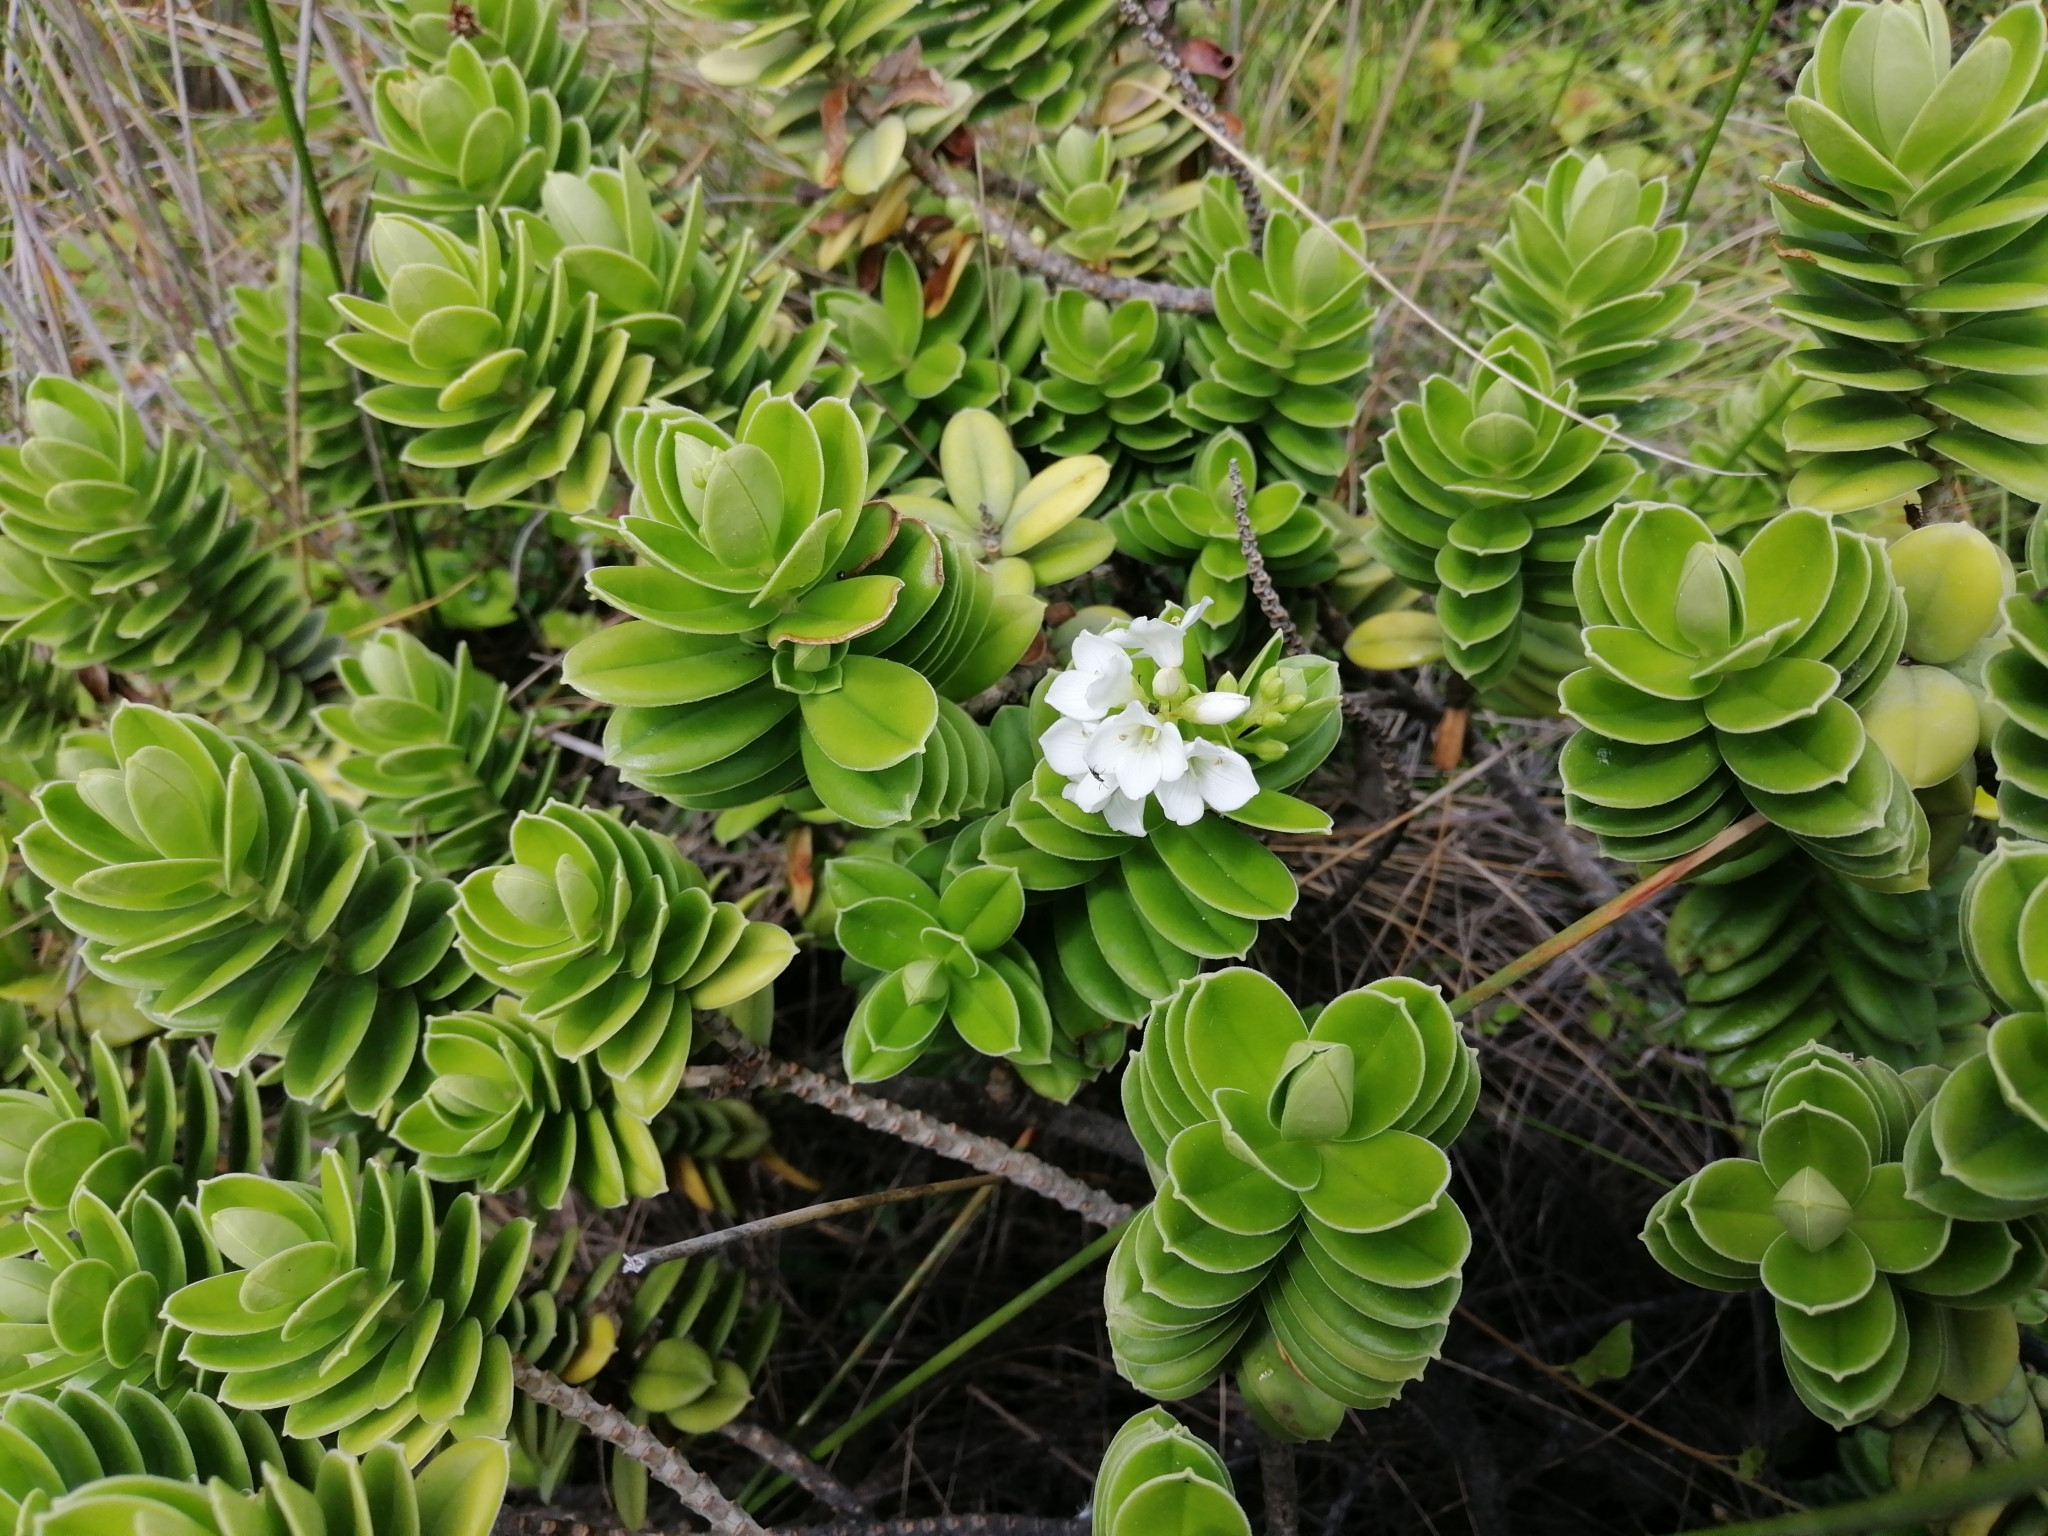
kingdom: Plantae
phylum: Tracheophyta
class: Magnoliopsida
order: Lamiales
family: Plantaginaceae
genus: Veronica
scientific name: Veronica elliptica
